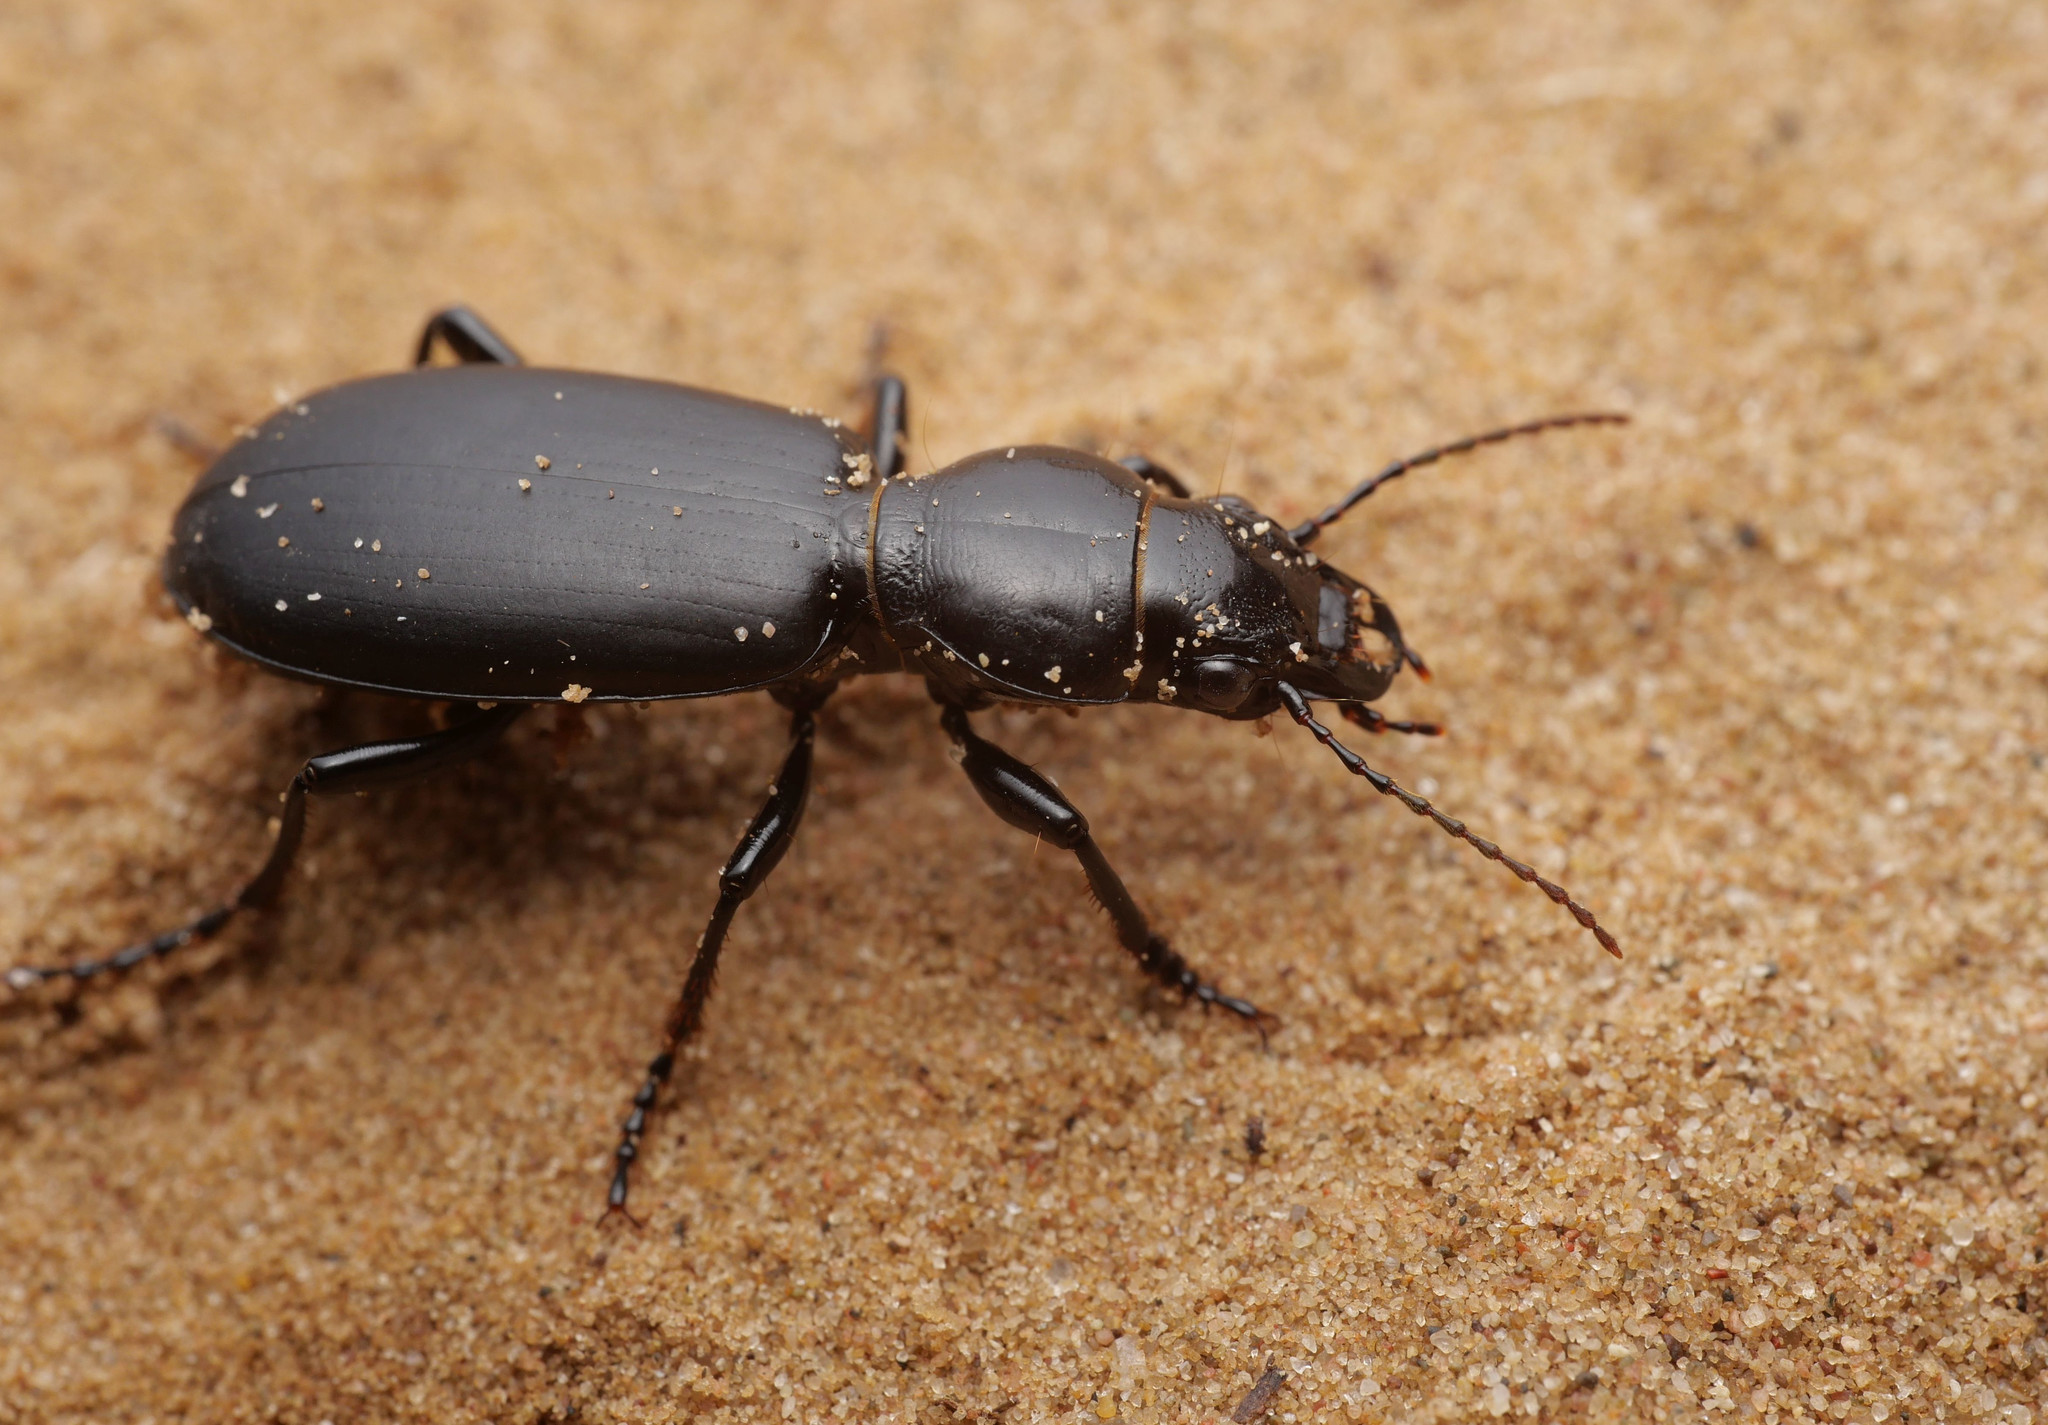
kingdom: Animalia
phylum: Arthropoda
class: Insecta
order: Coleoptera
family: Carabidae
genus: Broscus
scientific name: Broscus cephalotes
